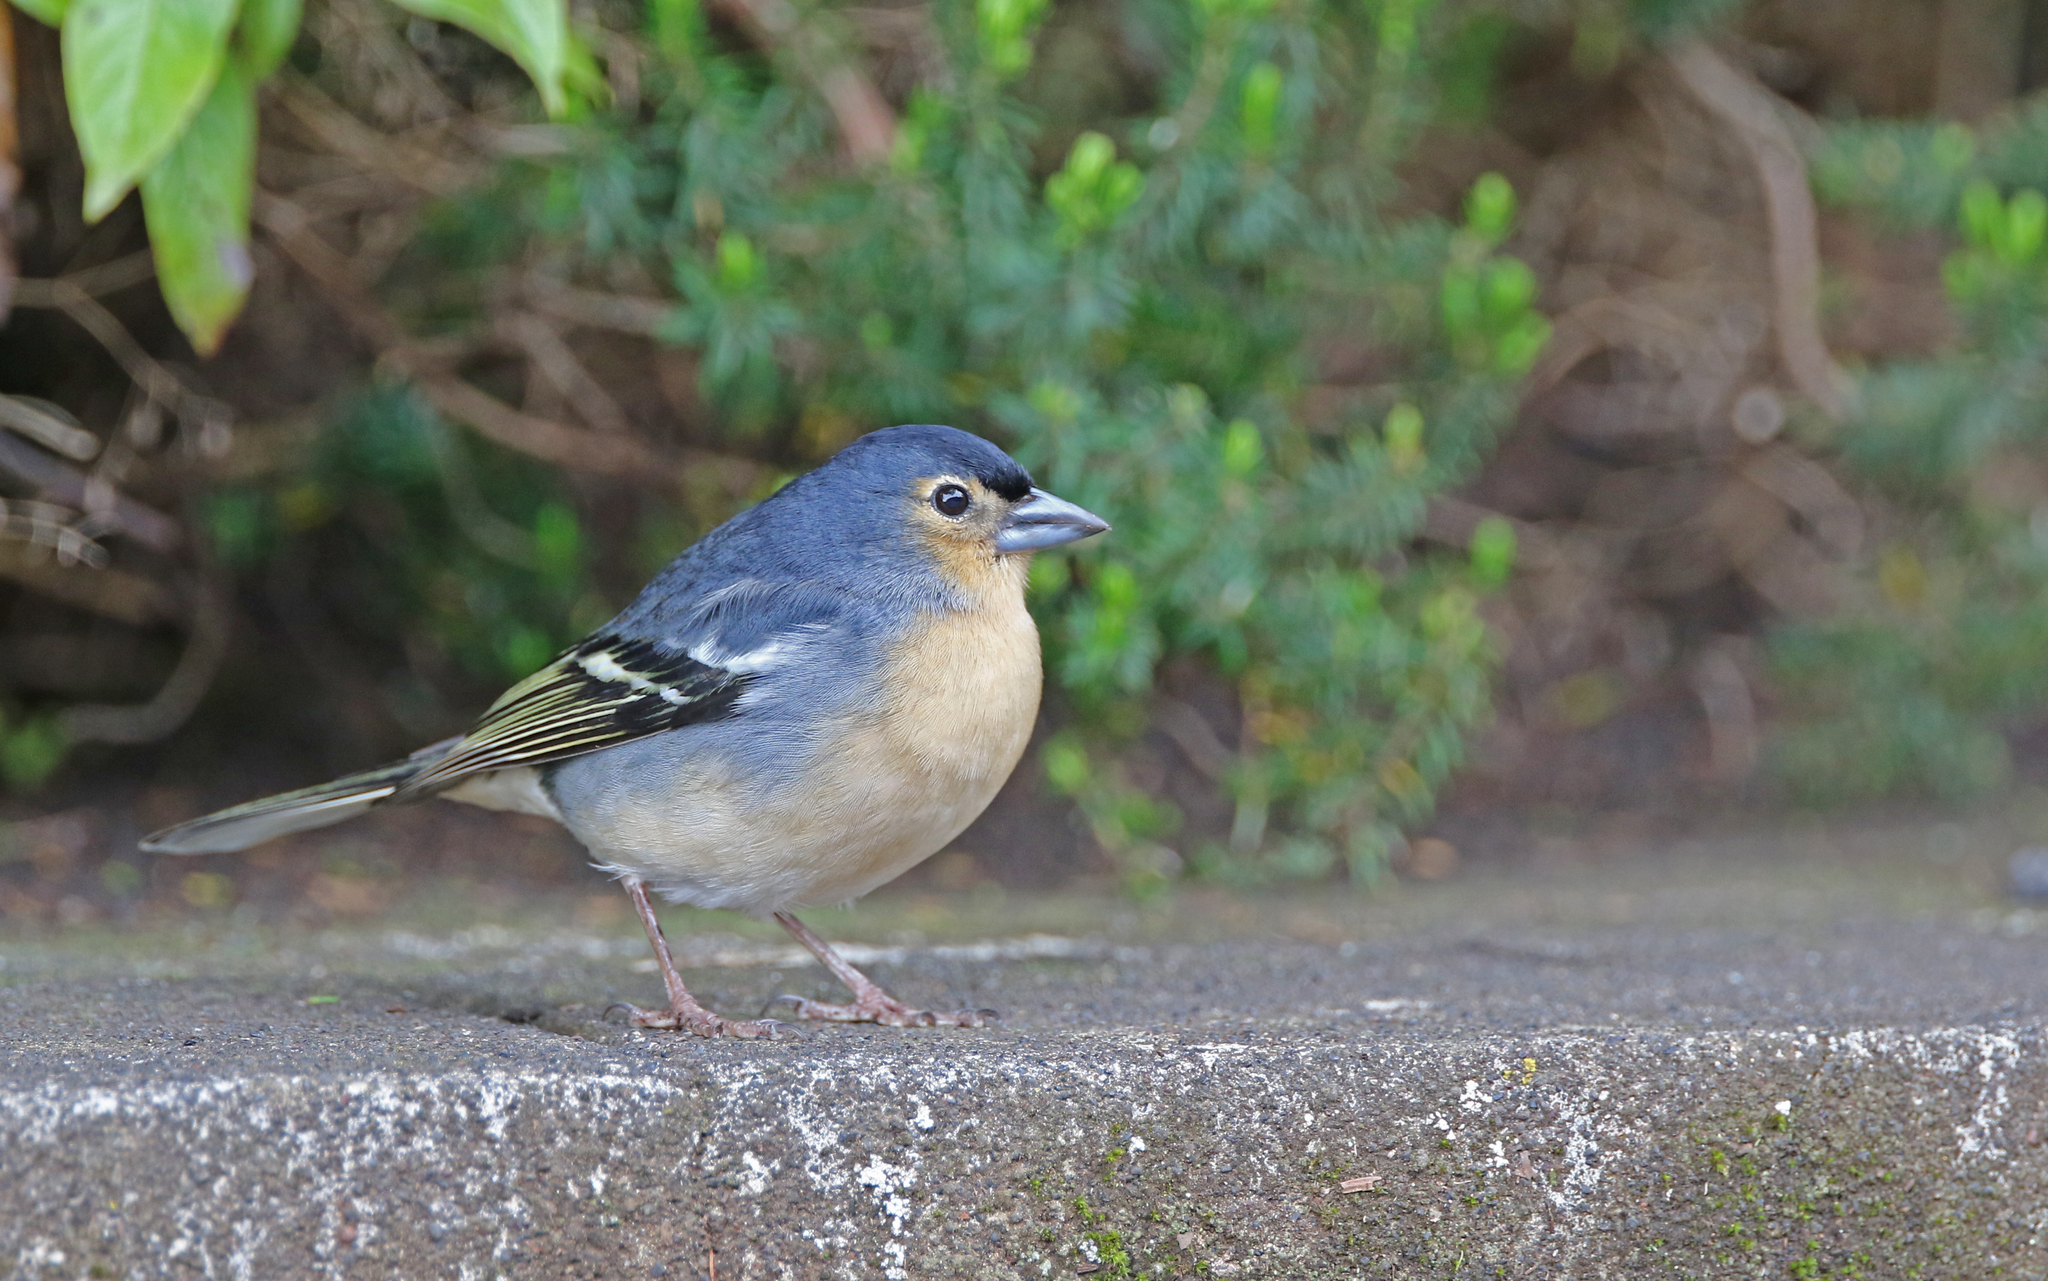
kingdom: Animalia
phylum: Chordata
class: Aves
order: Passeriformes
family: Fringillidae
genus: Fringilla
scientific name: Fringilla canariensis
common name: Canary islands chaffinch
